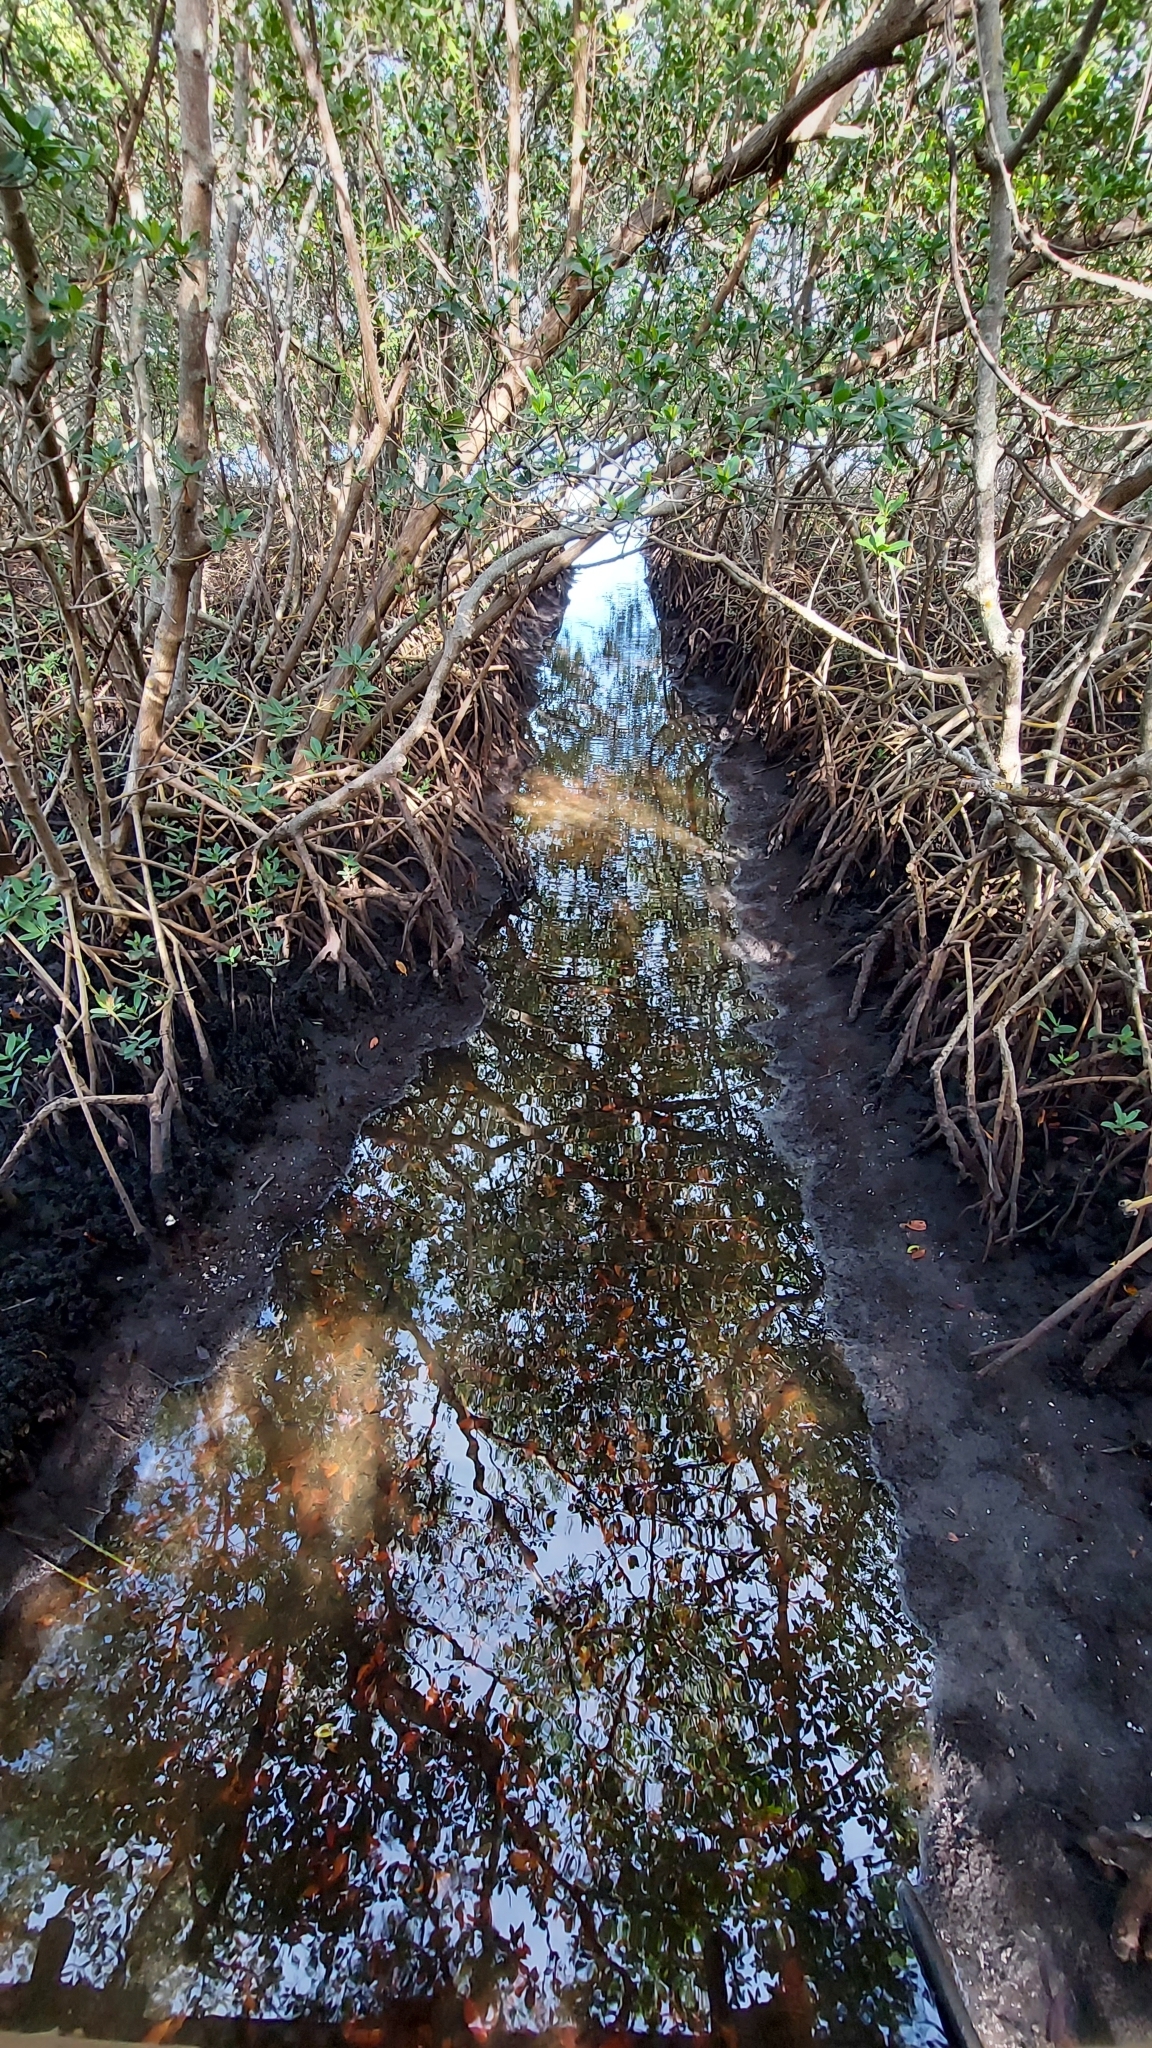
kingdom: Plantae
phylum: Tracheophyta
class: Magnoliopsida
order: Malpighiales
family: Rhizophoraceae
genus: Rhizophora
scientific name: Rhizophora mangle
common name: Red mangrove
